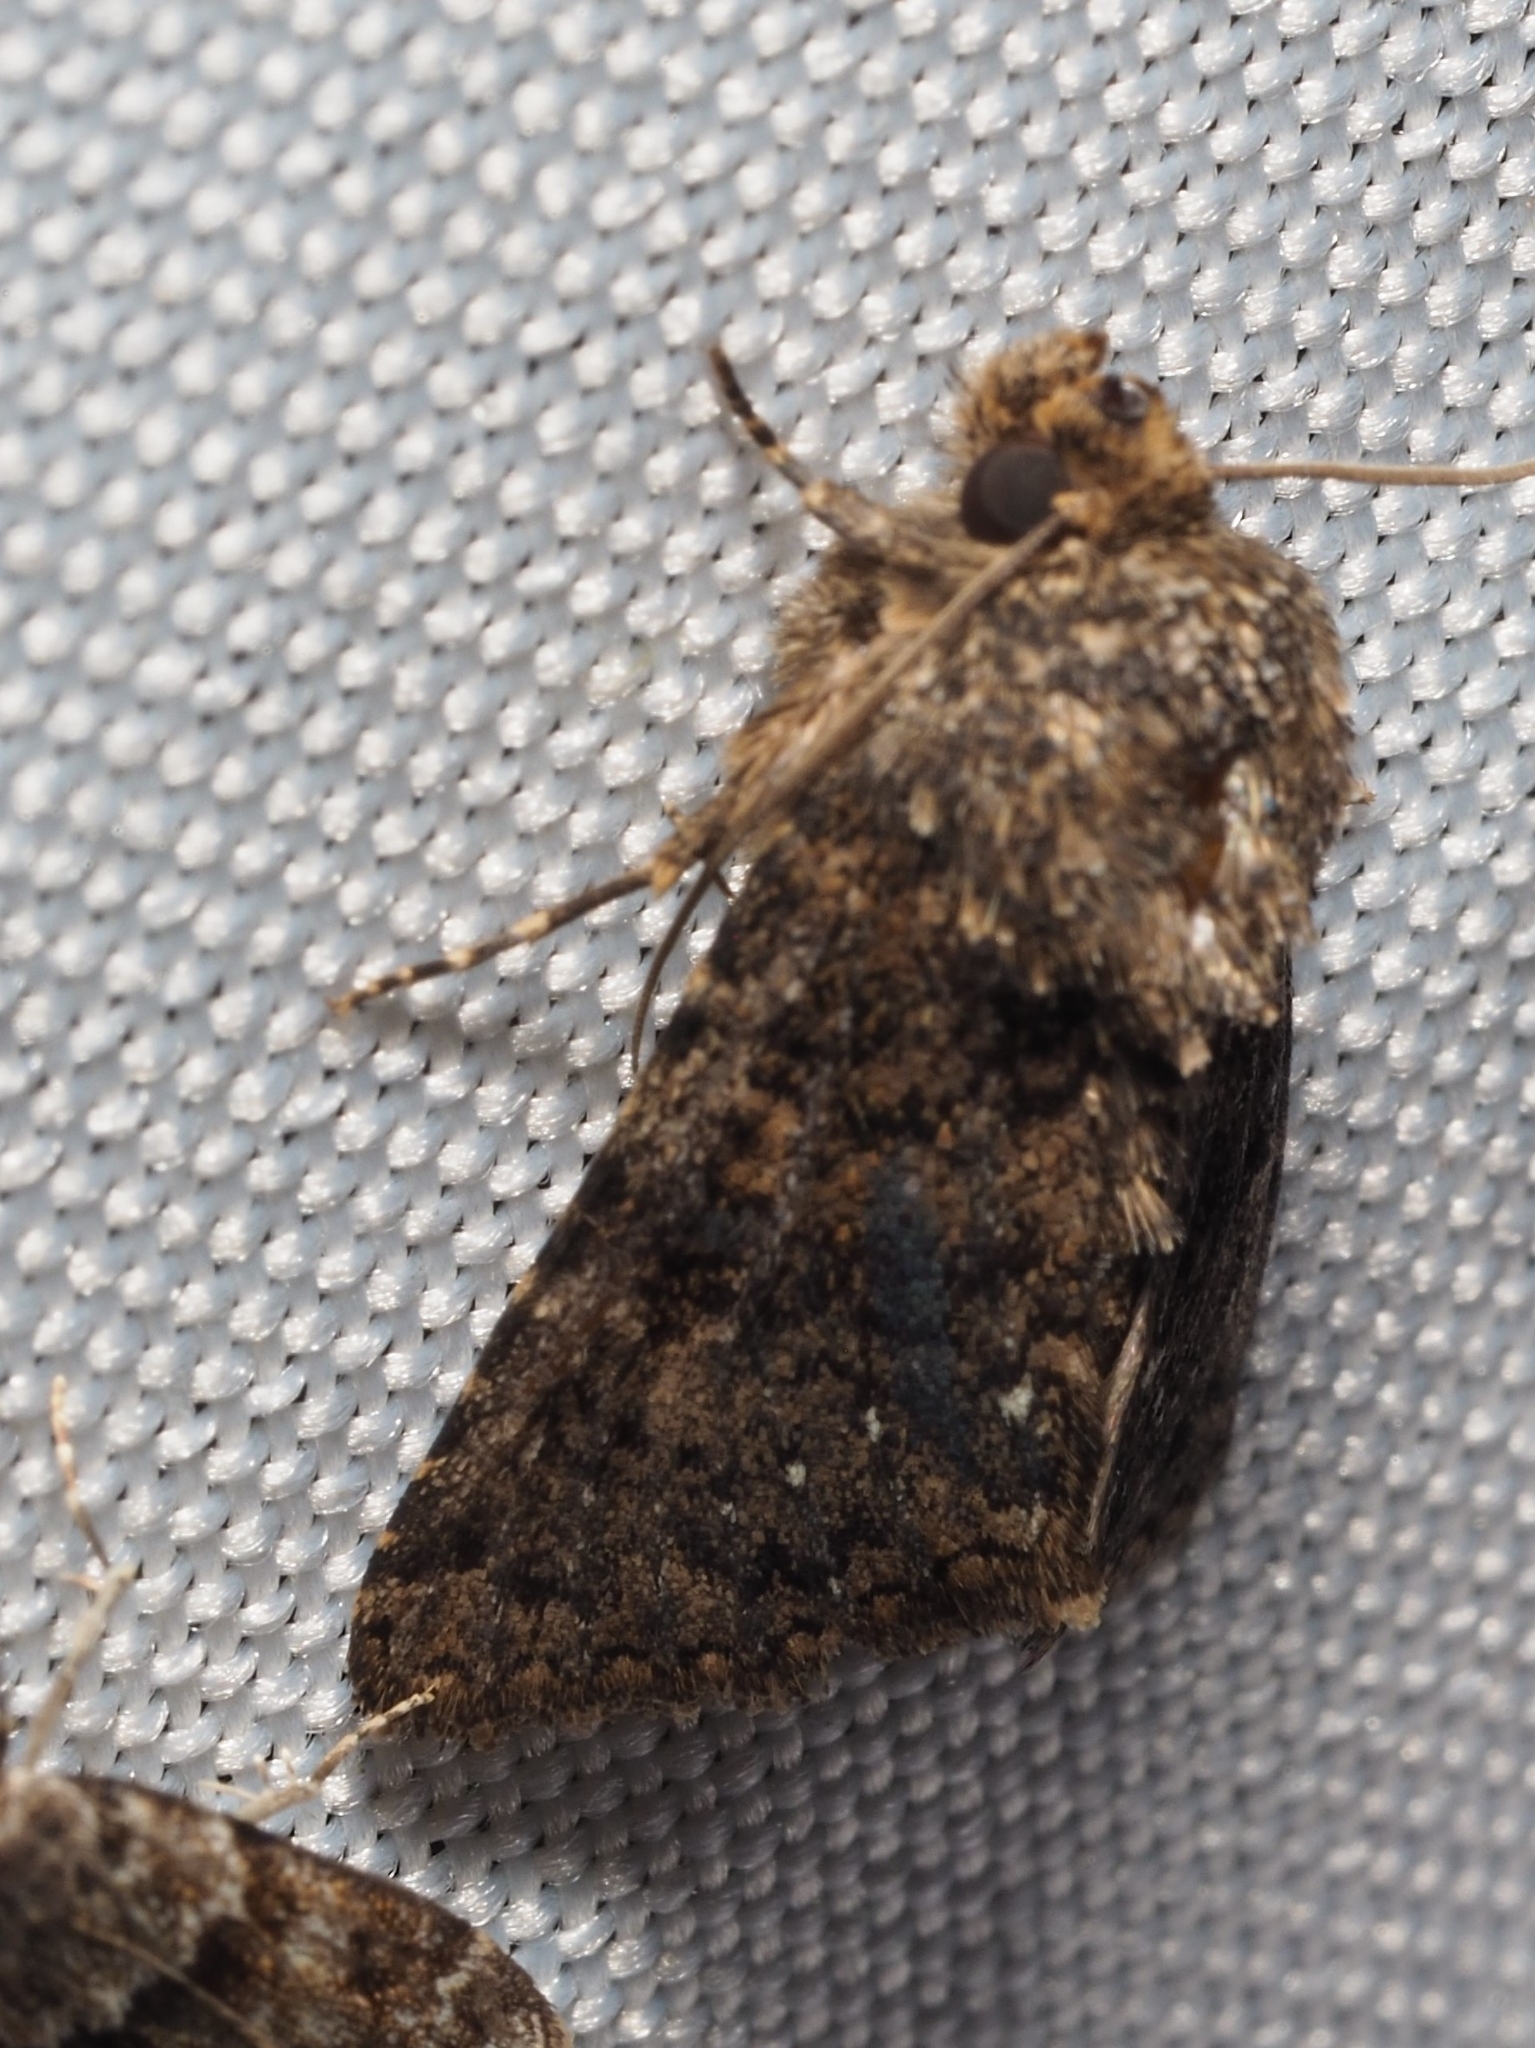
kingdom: Animalia
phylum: Arthropoda
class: Insecta
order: Lepidoptera
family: Noctuidae
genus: Recoropha
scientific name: Recoropha canteneri
